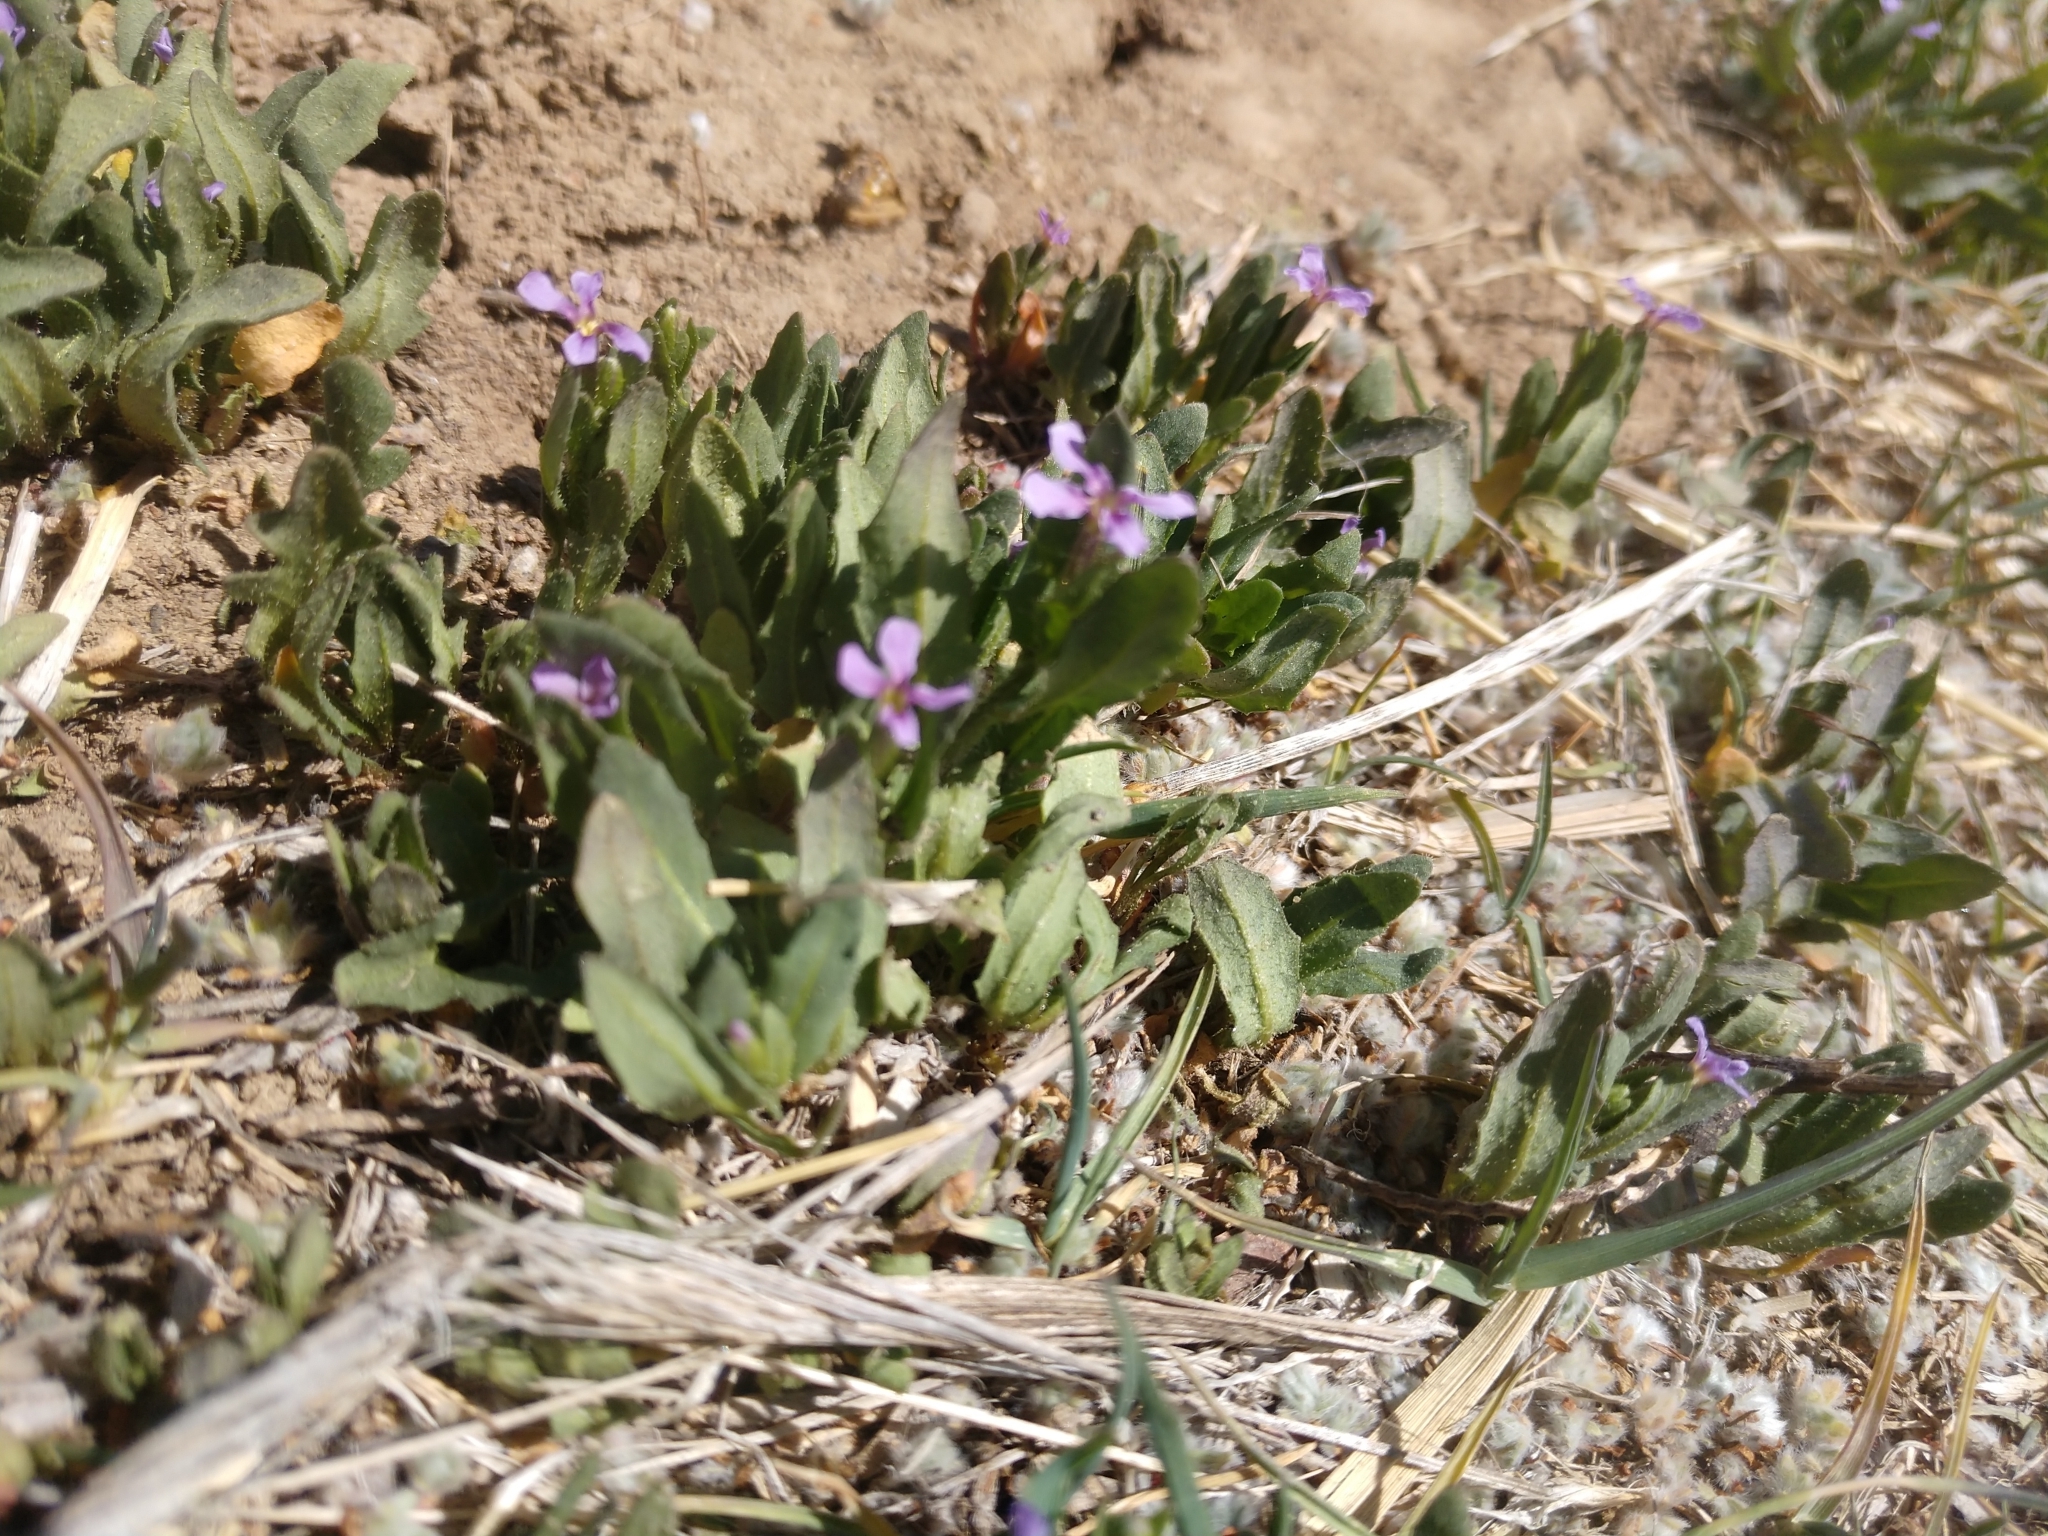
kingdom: Plantae
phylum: Tracheophyta
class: Magnoliopsida
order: Brassicales
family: Brassicaceae
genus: Chorispora
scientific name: Chorispora tenella
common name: Crossflower
